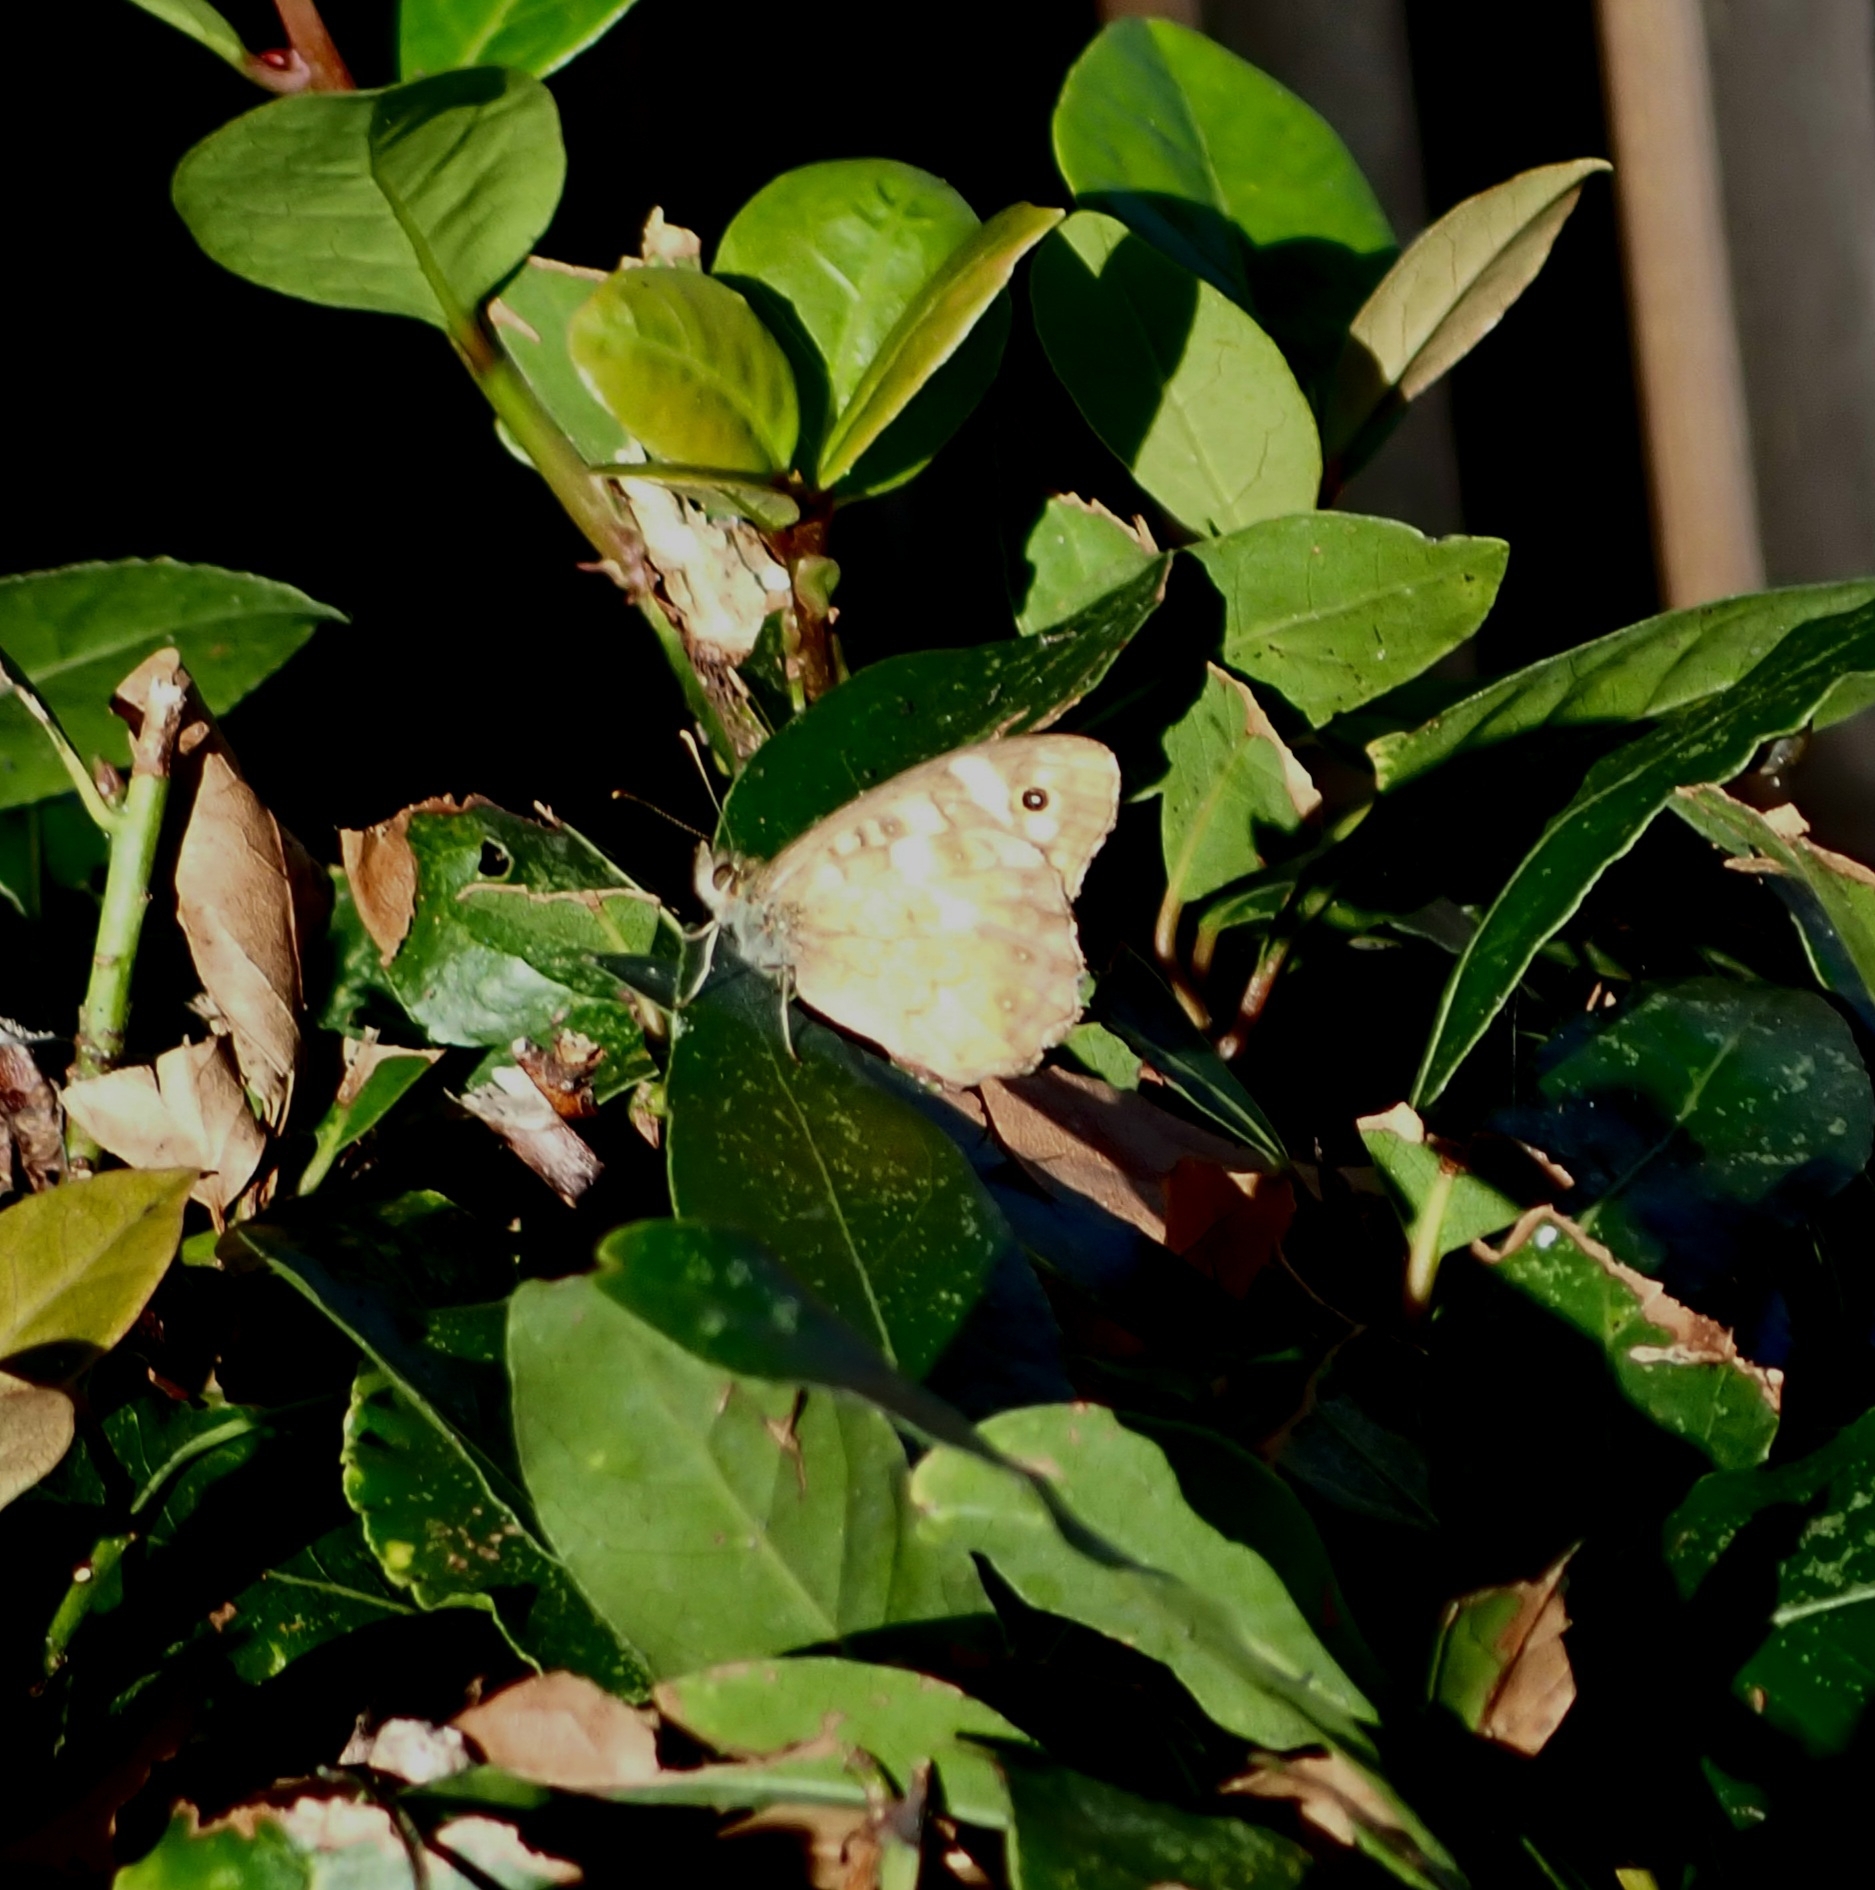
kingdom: Animalia
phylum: Arthropoda
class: Insecta
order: Lepidoptera
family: Nymphalidae
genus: Pararge
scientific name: Pararge aegeria
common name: Speckled wood
